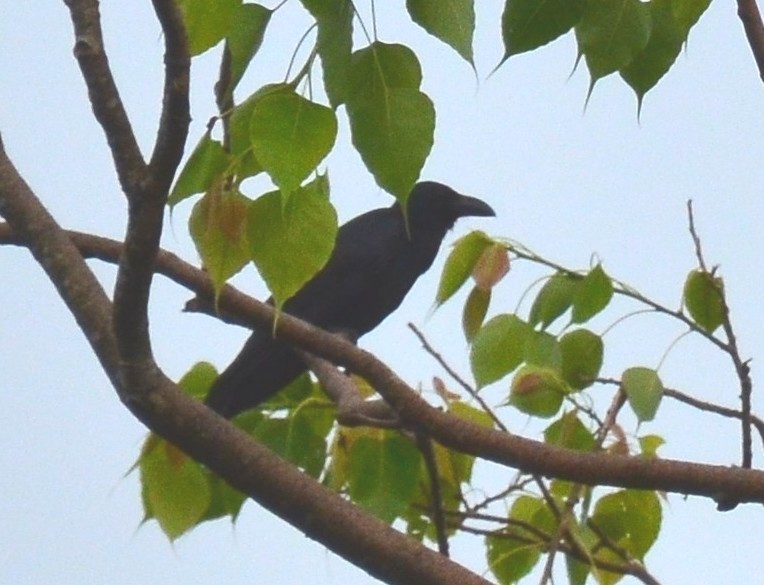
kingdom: Animalia
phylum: Chordata
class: Aves
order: Passeriformes
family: Corvidae
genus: Corvus
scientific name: Corvus macrorhynchos
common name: Large-billed crow
